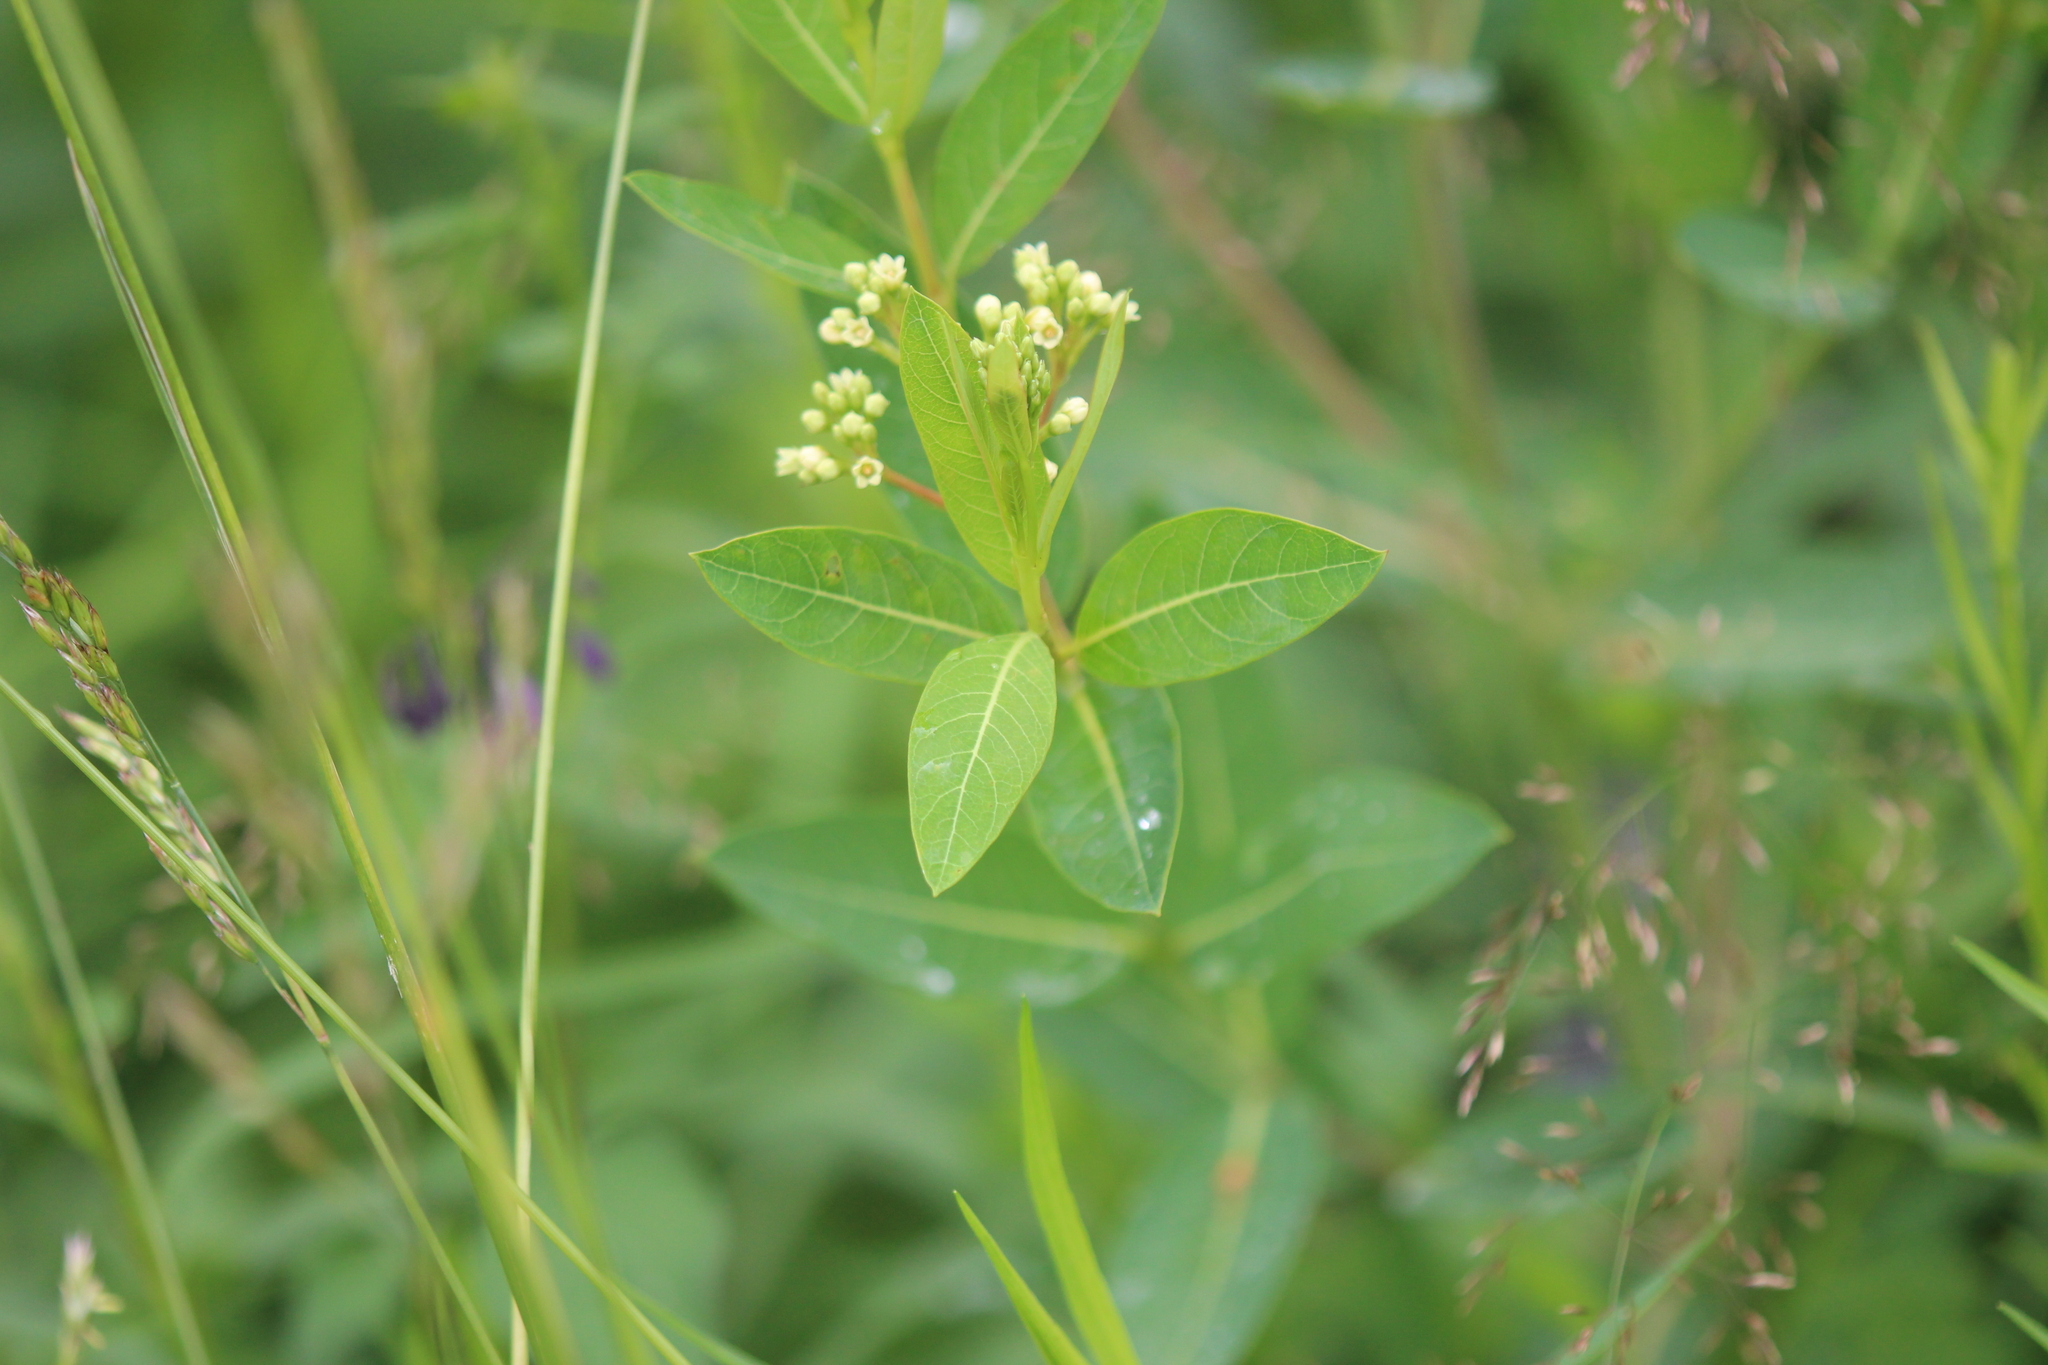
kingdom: Plantae
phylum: Tracheophyta
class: Magnoliopsida
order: Gentianales
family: Apocynaceae
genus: Apocynum
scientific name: Apocynum cannabinum
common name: Hemp dogbane
